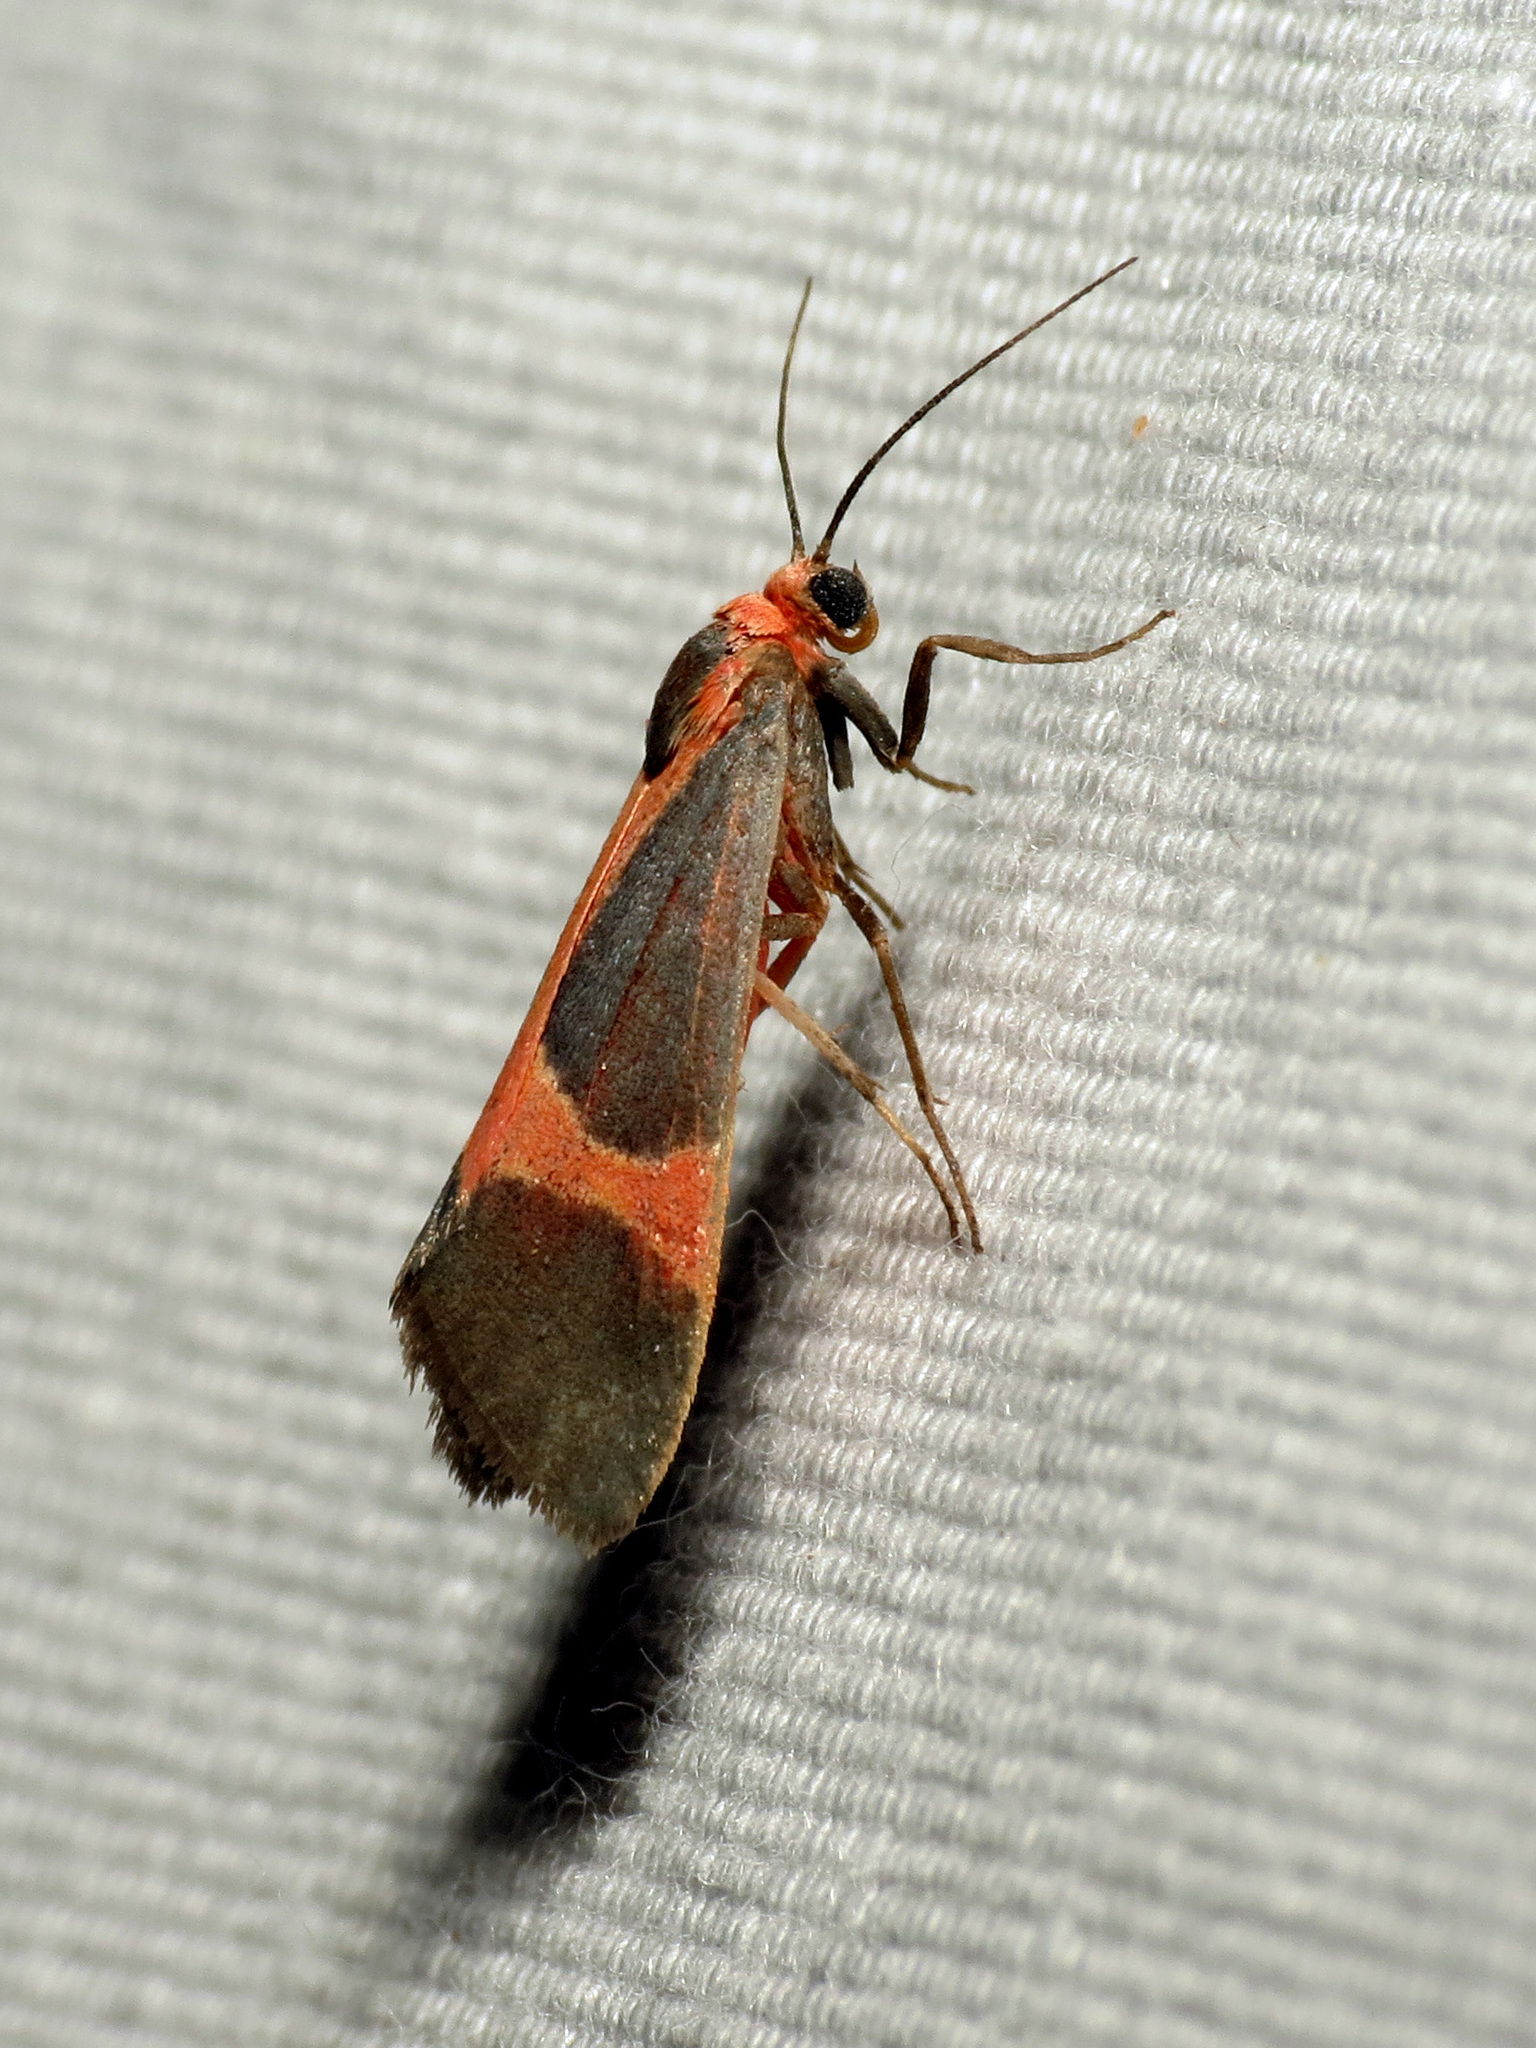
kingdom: Animalia
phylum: Arthropoda
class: Insecta
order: Lepidoptera
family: Erebidae
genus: Cisthene
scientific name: Cisthene martini
